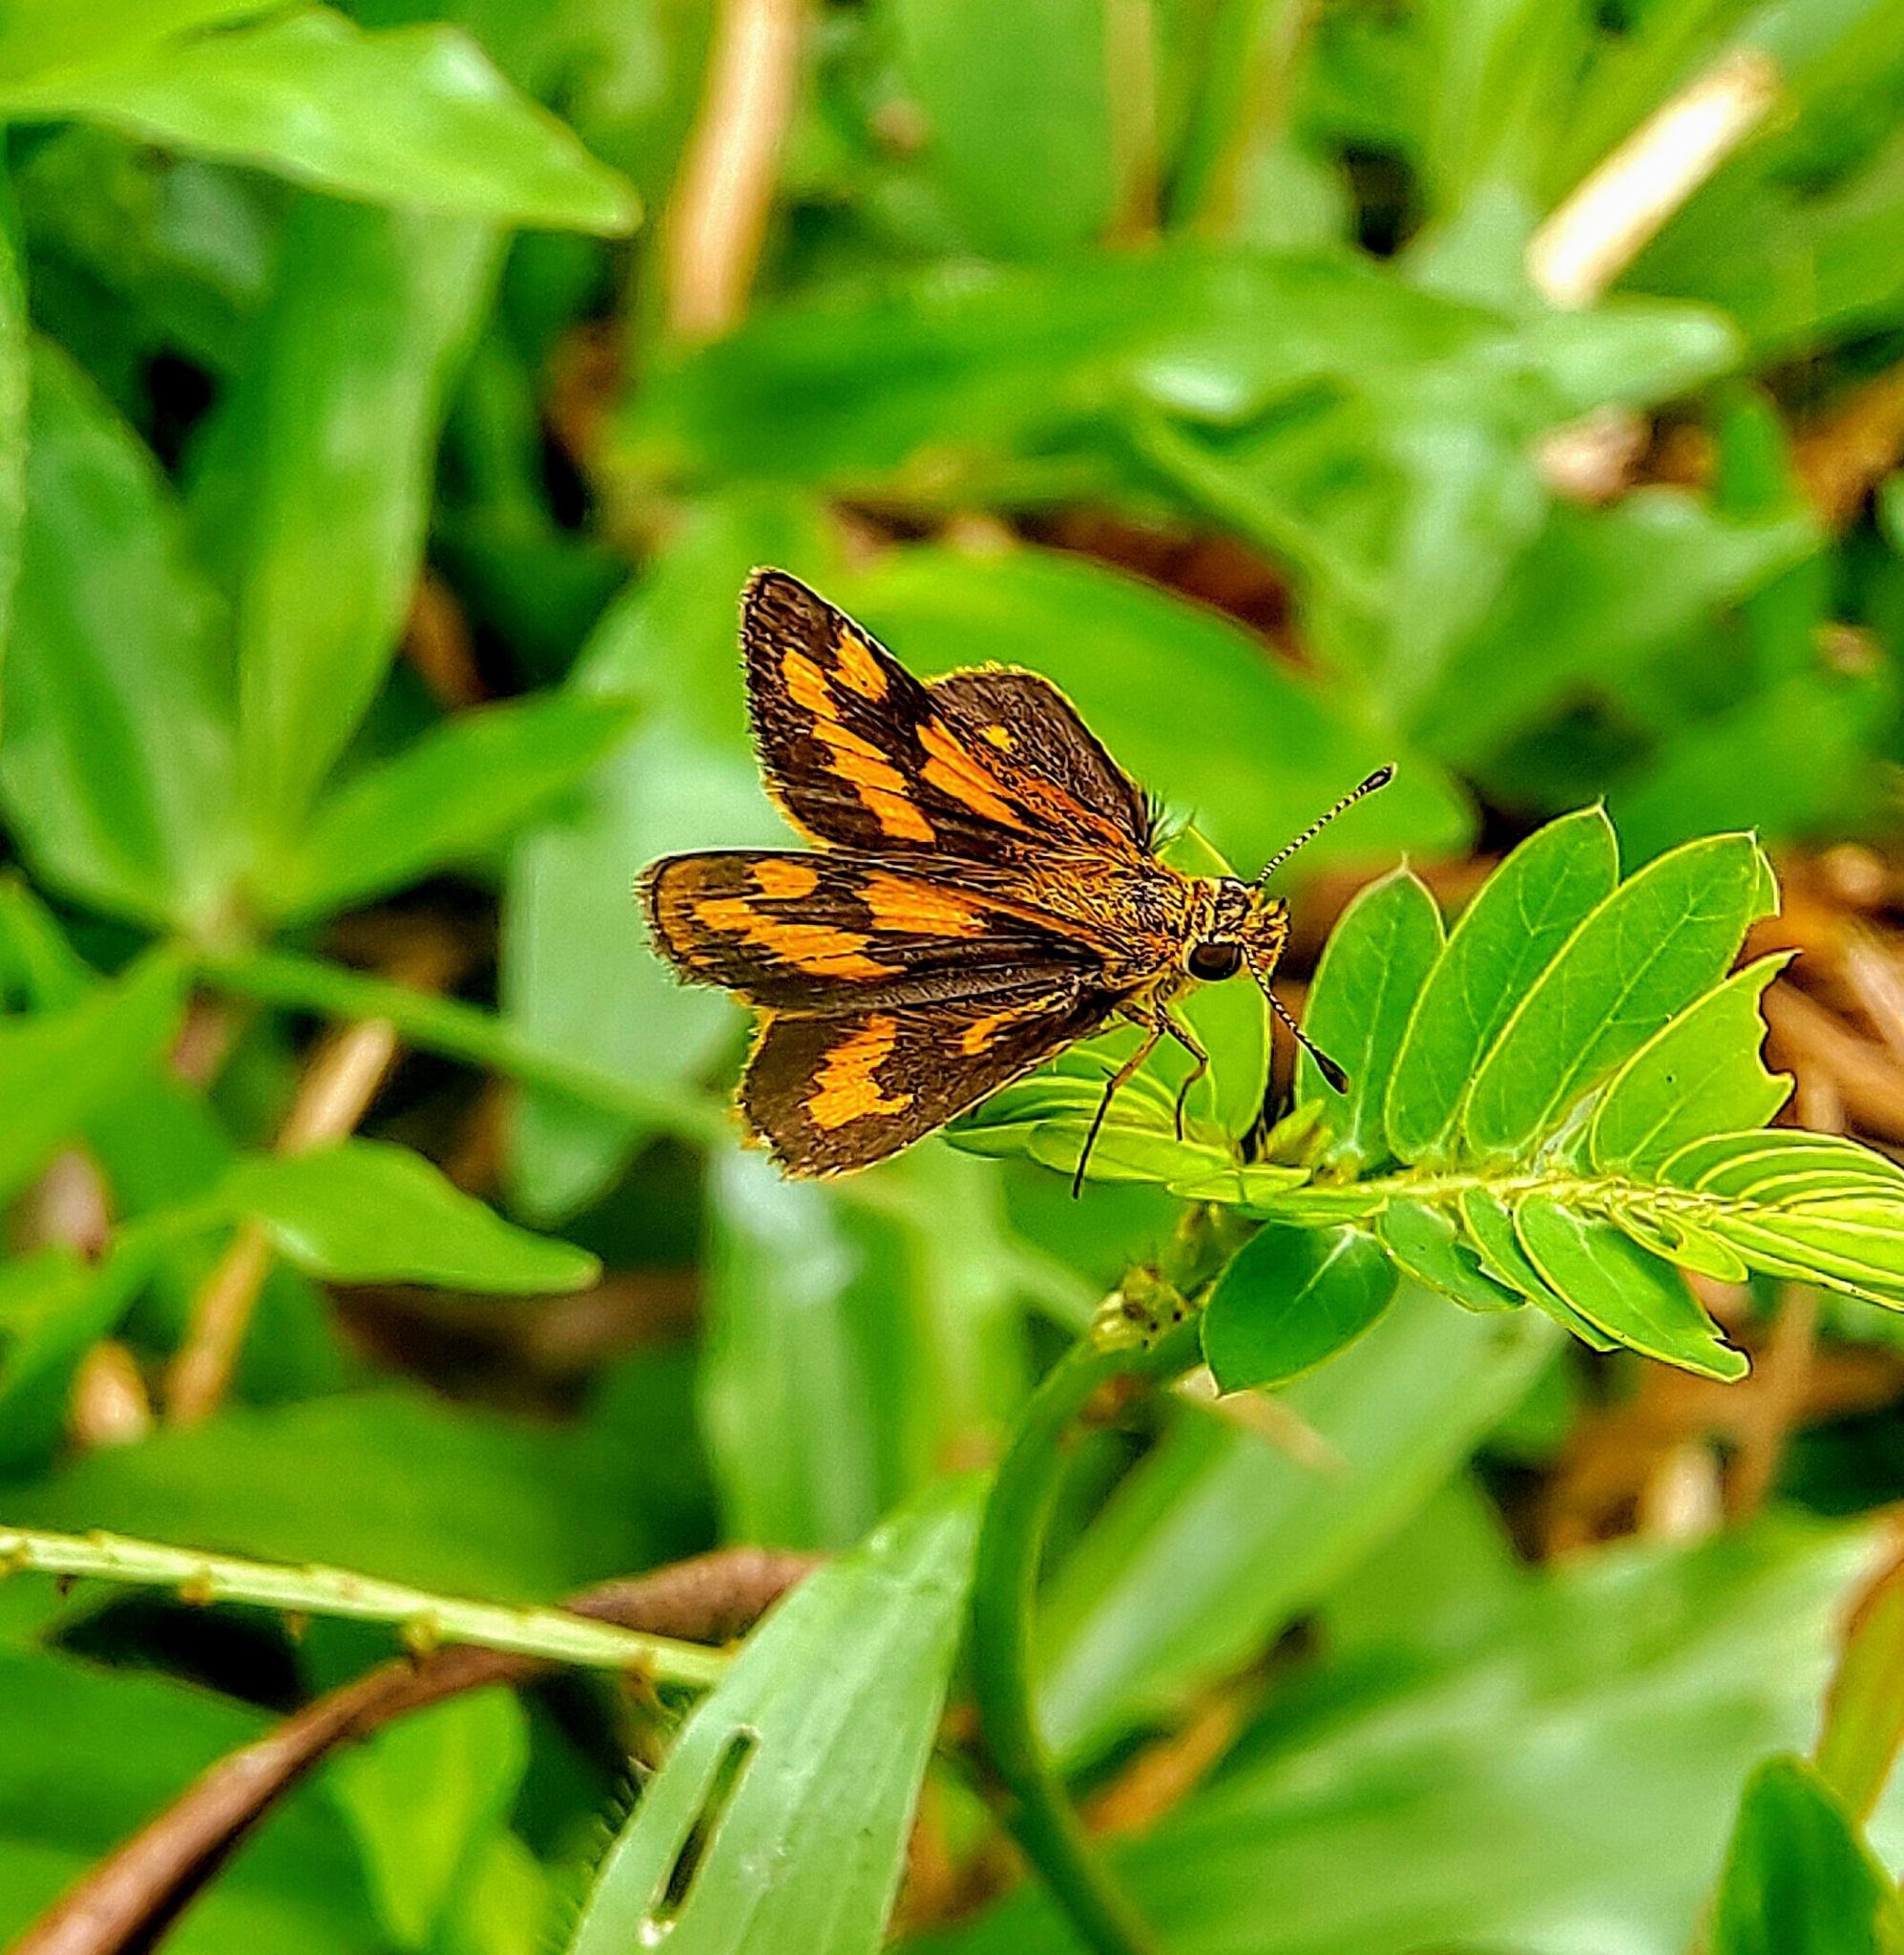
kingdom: Animalia
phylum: Arthropoda
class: Insecta
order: Lepidoptera
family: Hesperiidae
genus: Taractrocera
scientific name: Taractrocera archias
